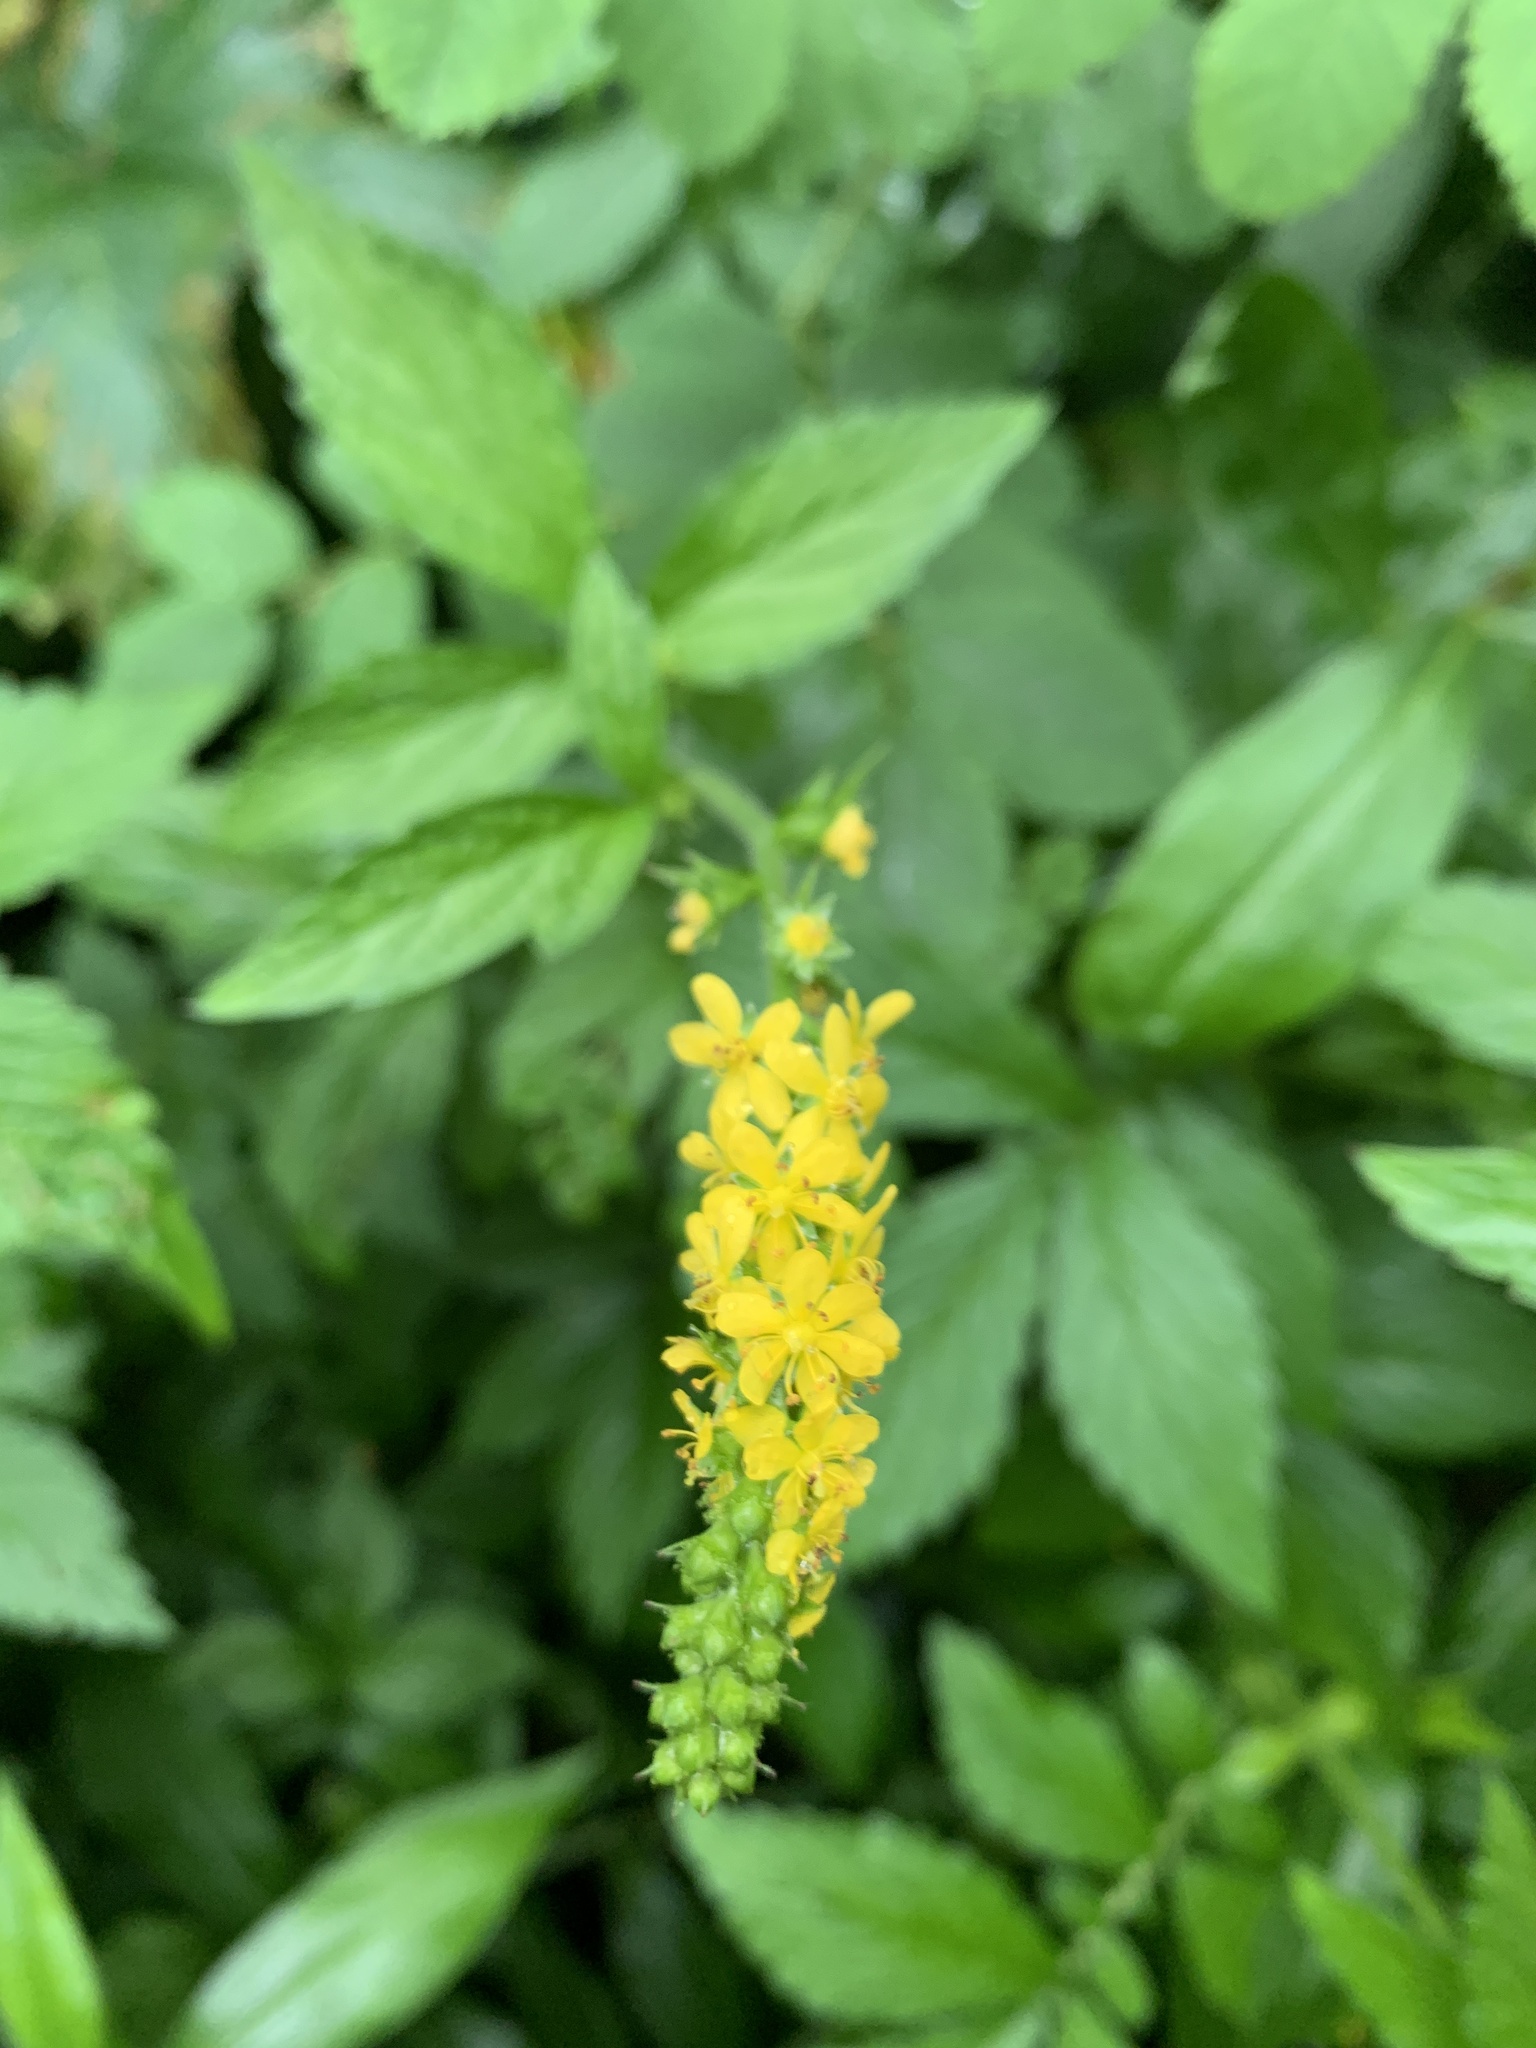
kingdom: Plantae
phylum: Tracheophyta
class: Magnoliopsida
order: Rosales
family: Rosaceae
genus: Agrimonia
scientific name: Agrimonia striata
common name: Britton's agrimony
